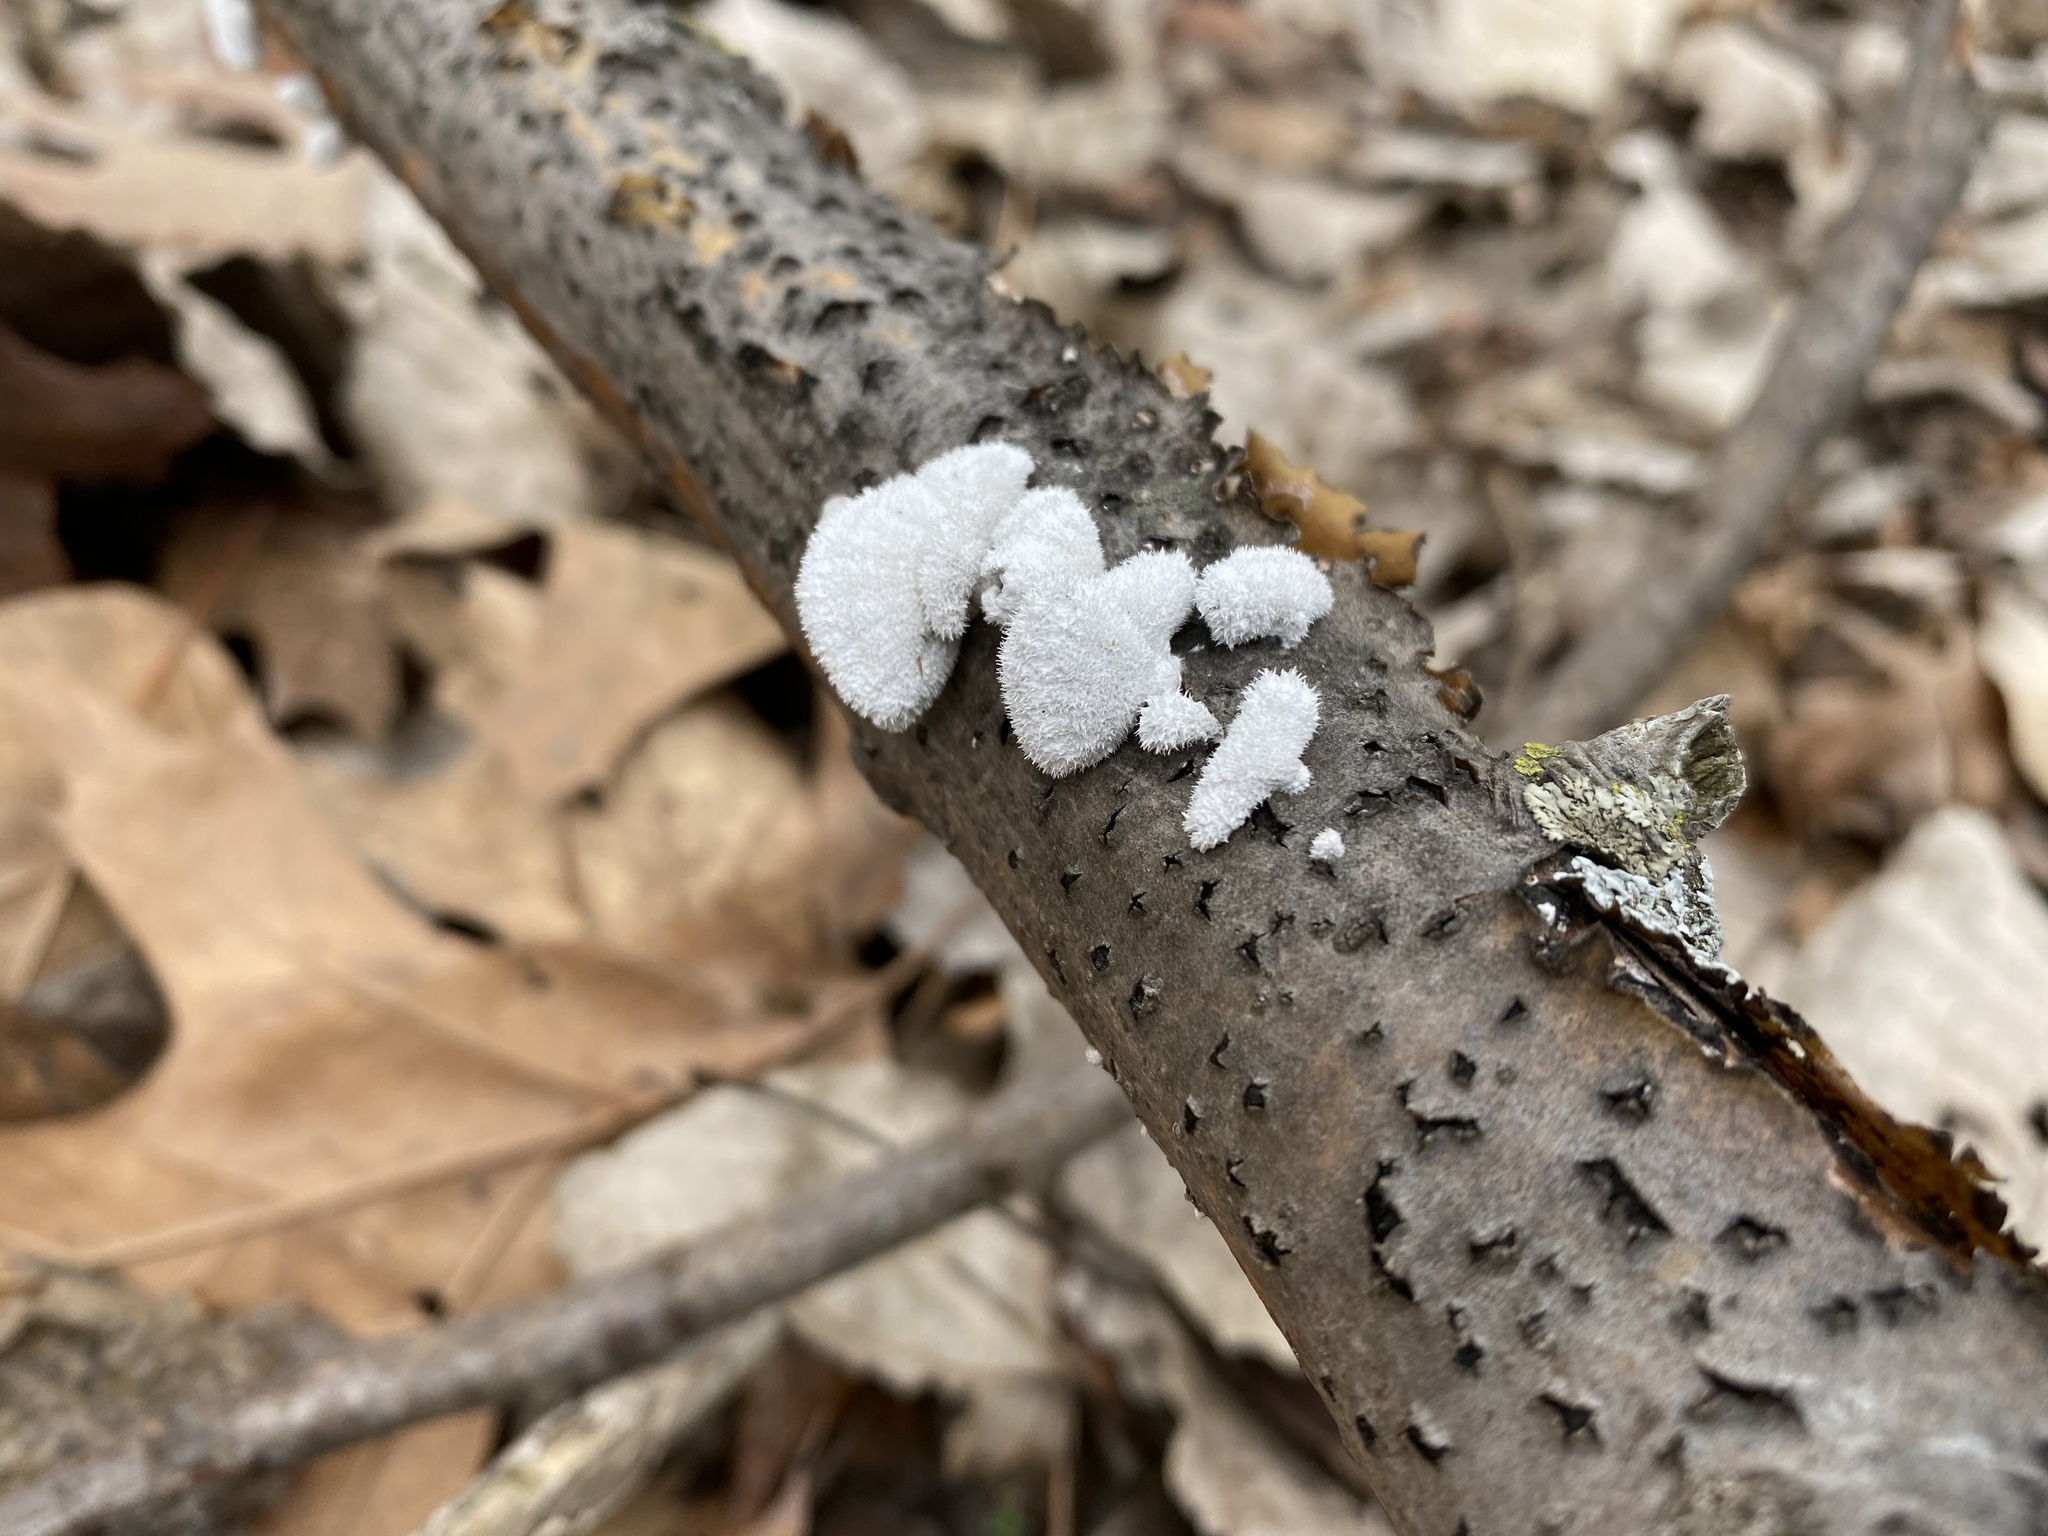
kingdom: Fungi
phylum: Basidiomycota
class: Agaricomycetes
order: Agaricales
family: Schizophyllaceae
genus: Schizophyllum
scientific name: Schizophyllum commune
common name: Common porecrust
